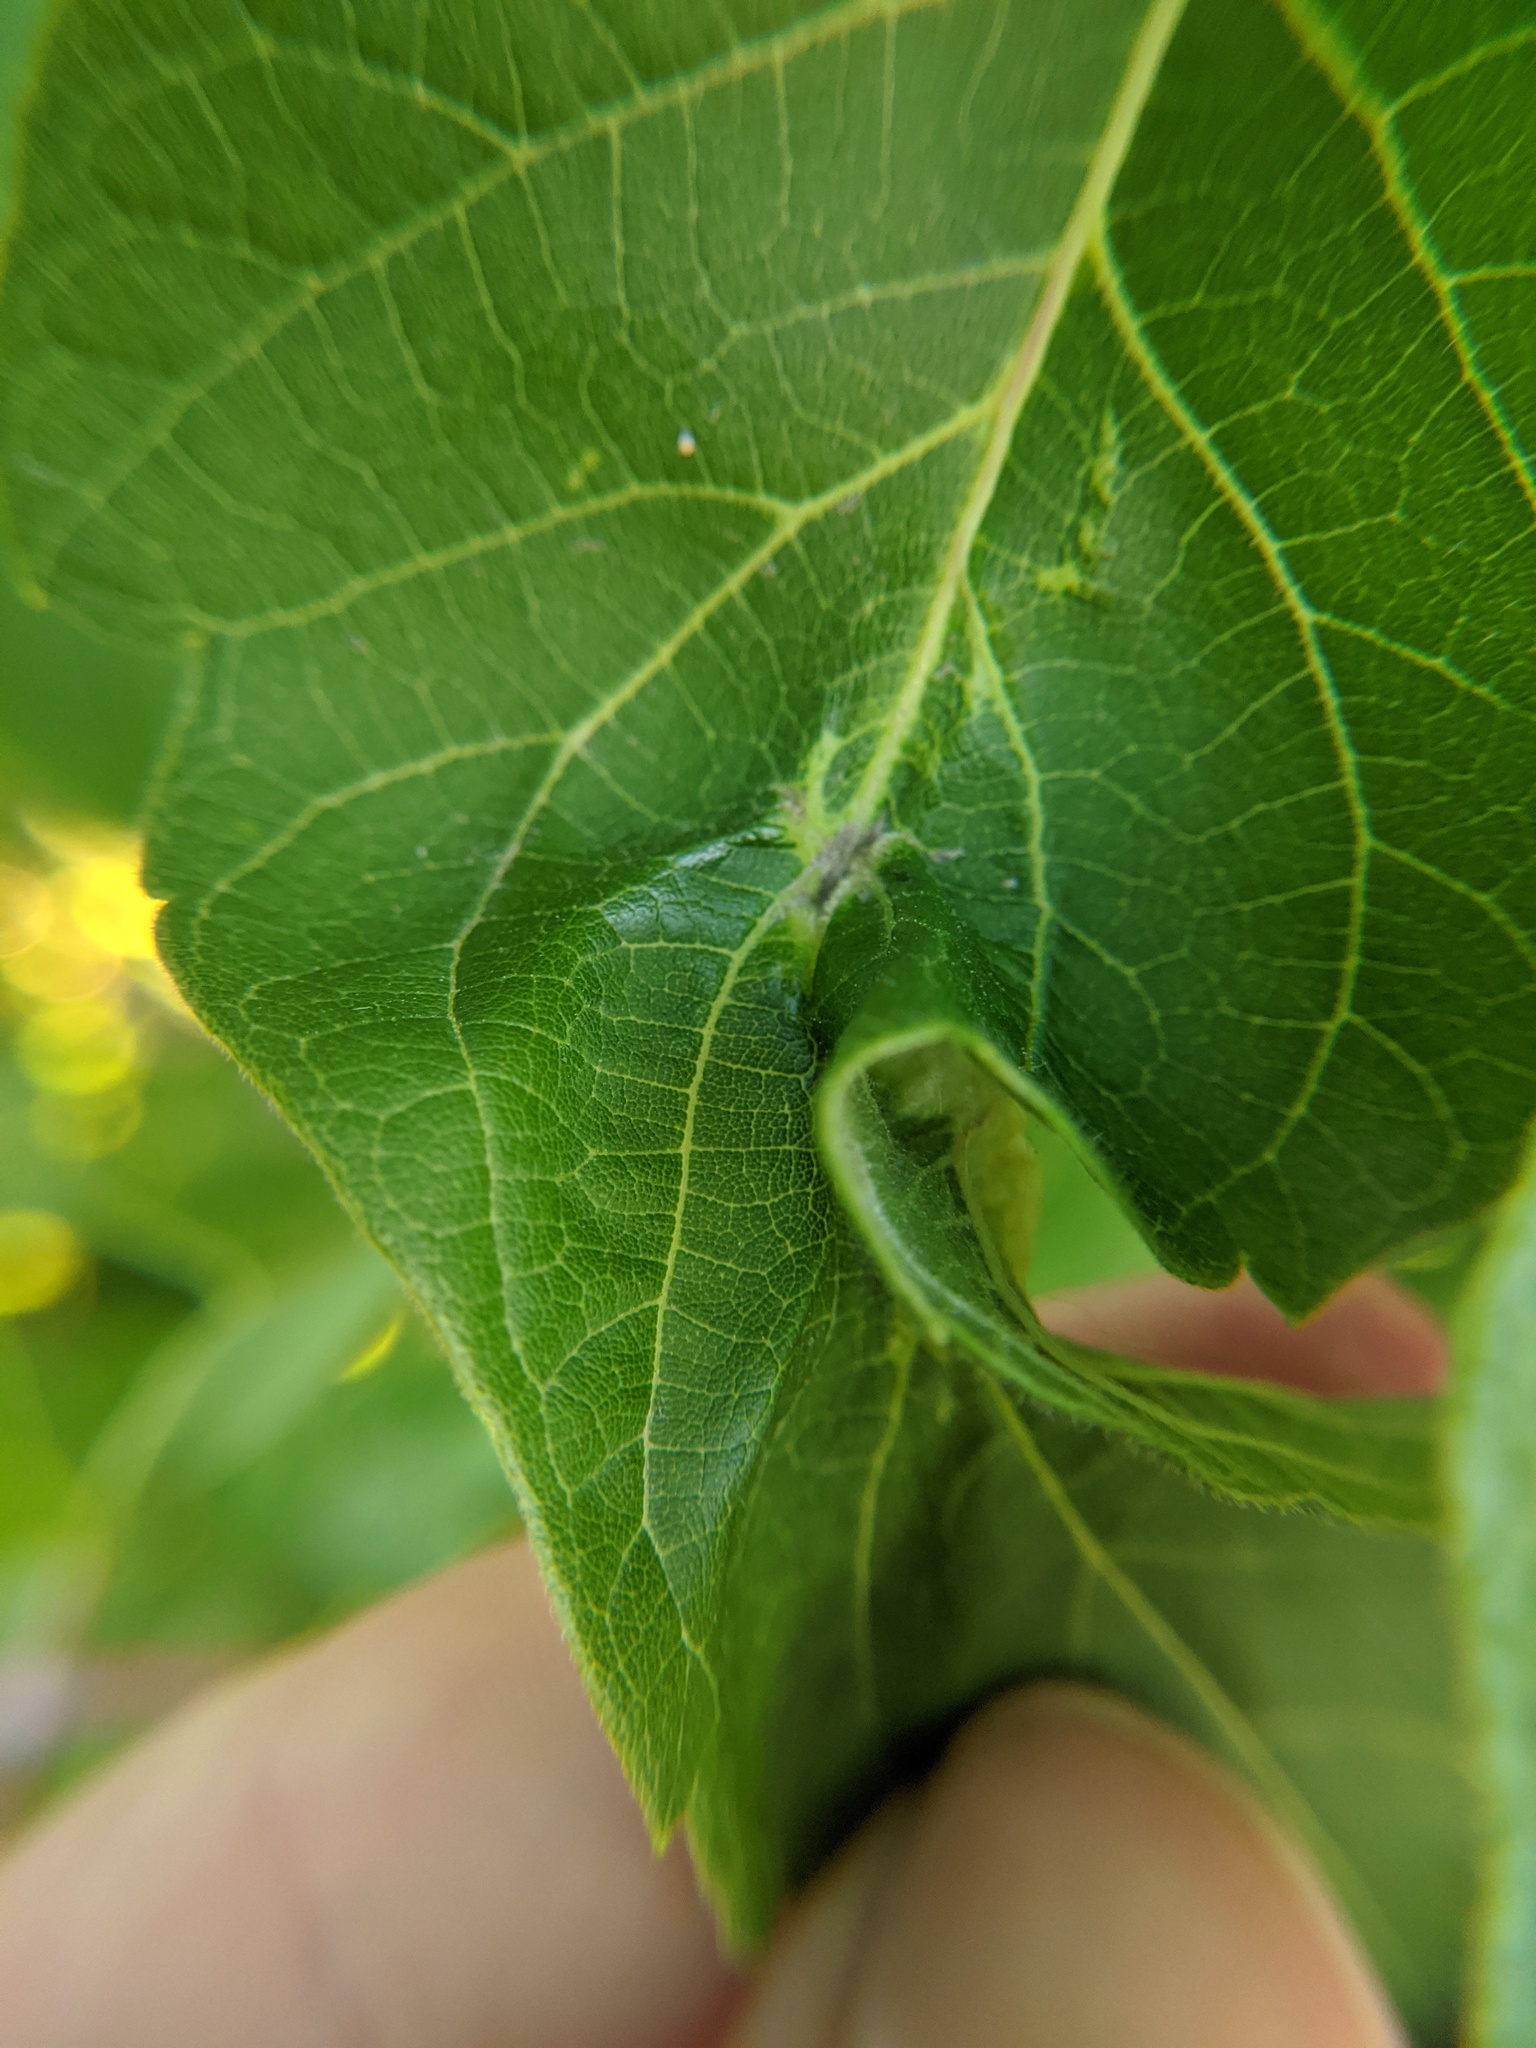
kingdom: Animalia
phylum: Arthropoda
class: Insecta
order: Diptera
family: Cecidomyiidae
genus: Contarinia
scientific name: Contarinia negundinis
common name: Boxelder budgall midge
